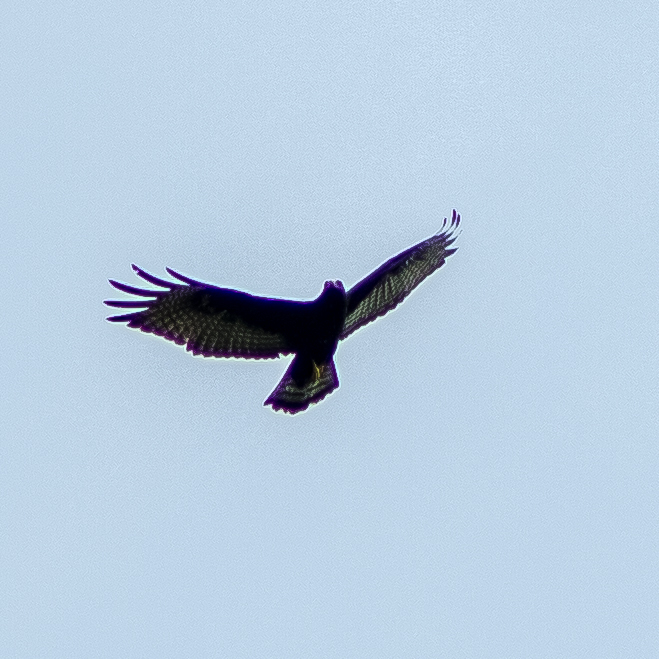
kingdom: Animalia
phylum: Chordata
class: Aves
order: Accipitriformes
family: Accipitridae
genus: Buteo
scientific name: Buteo albonotatus
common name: Zone-tailed hawk
